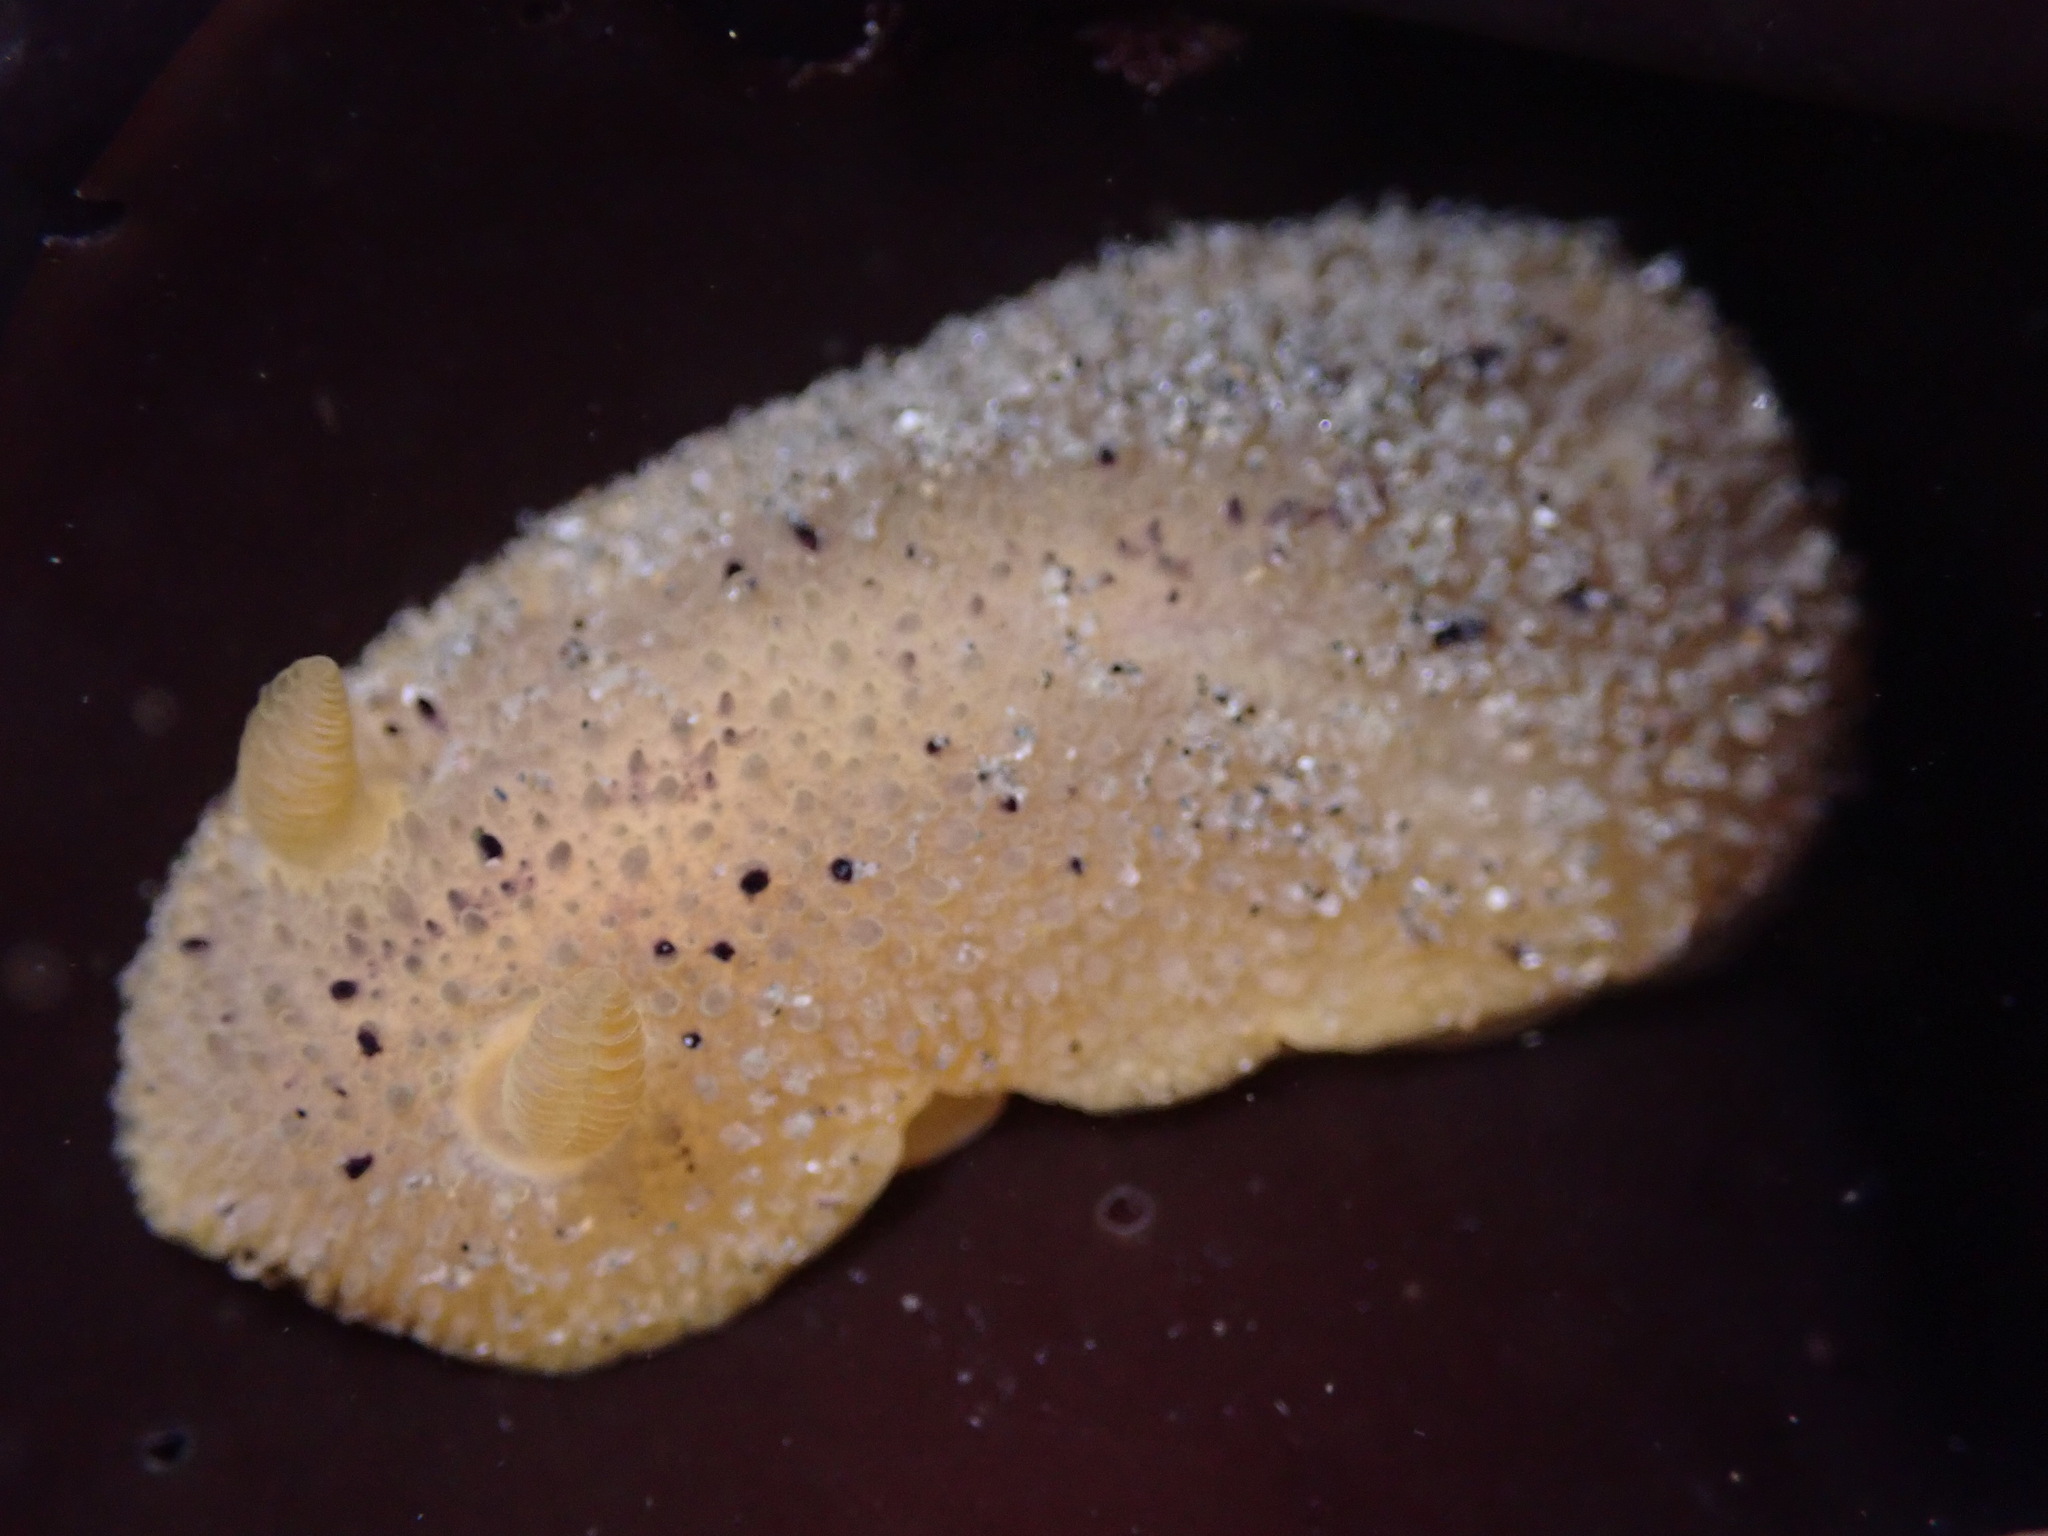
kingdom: Animalia
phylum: Mollusca
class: Gastropoda
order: Nudibranchia
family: Dorididae
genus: Doris
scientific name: Doris montereyensis
